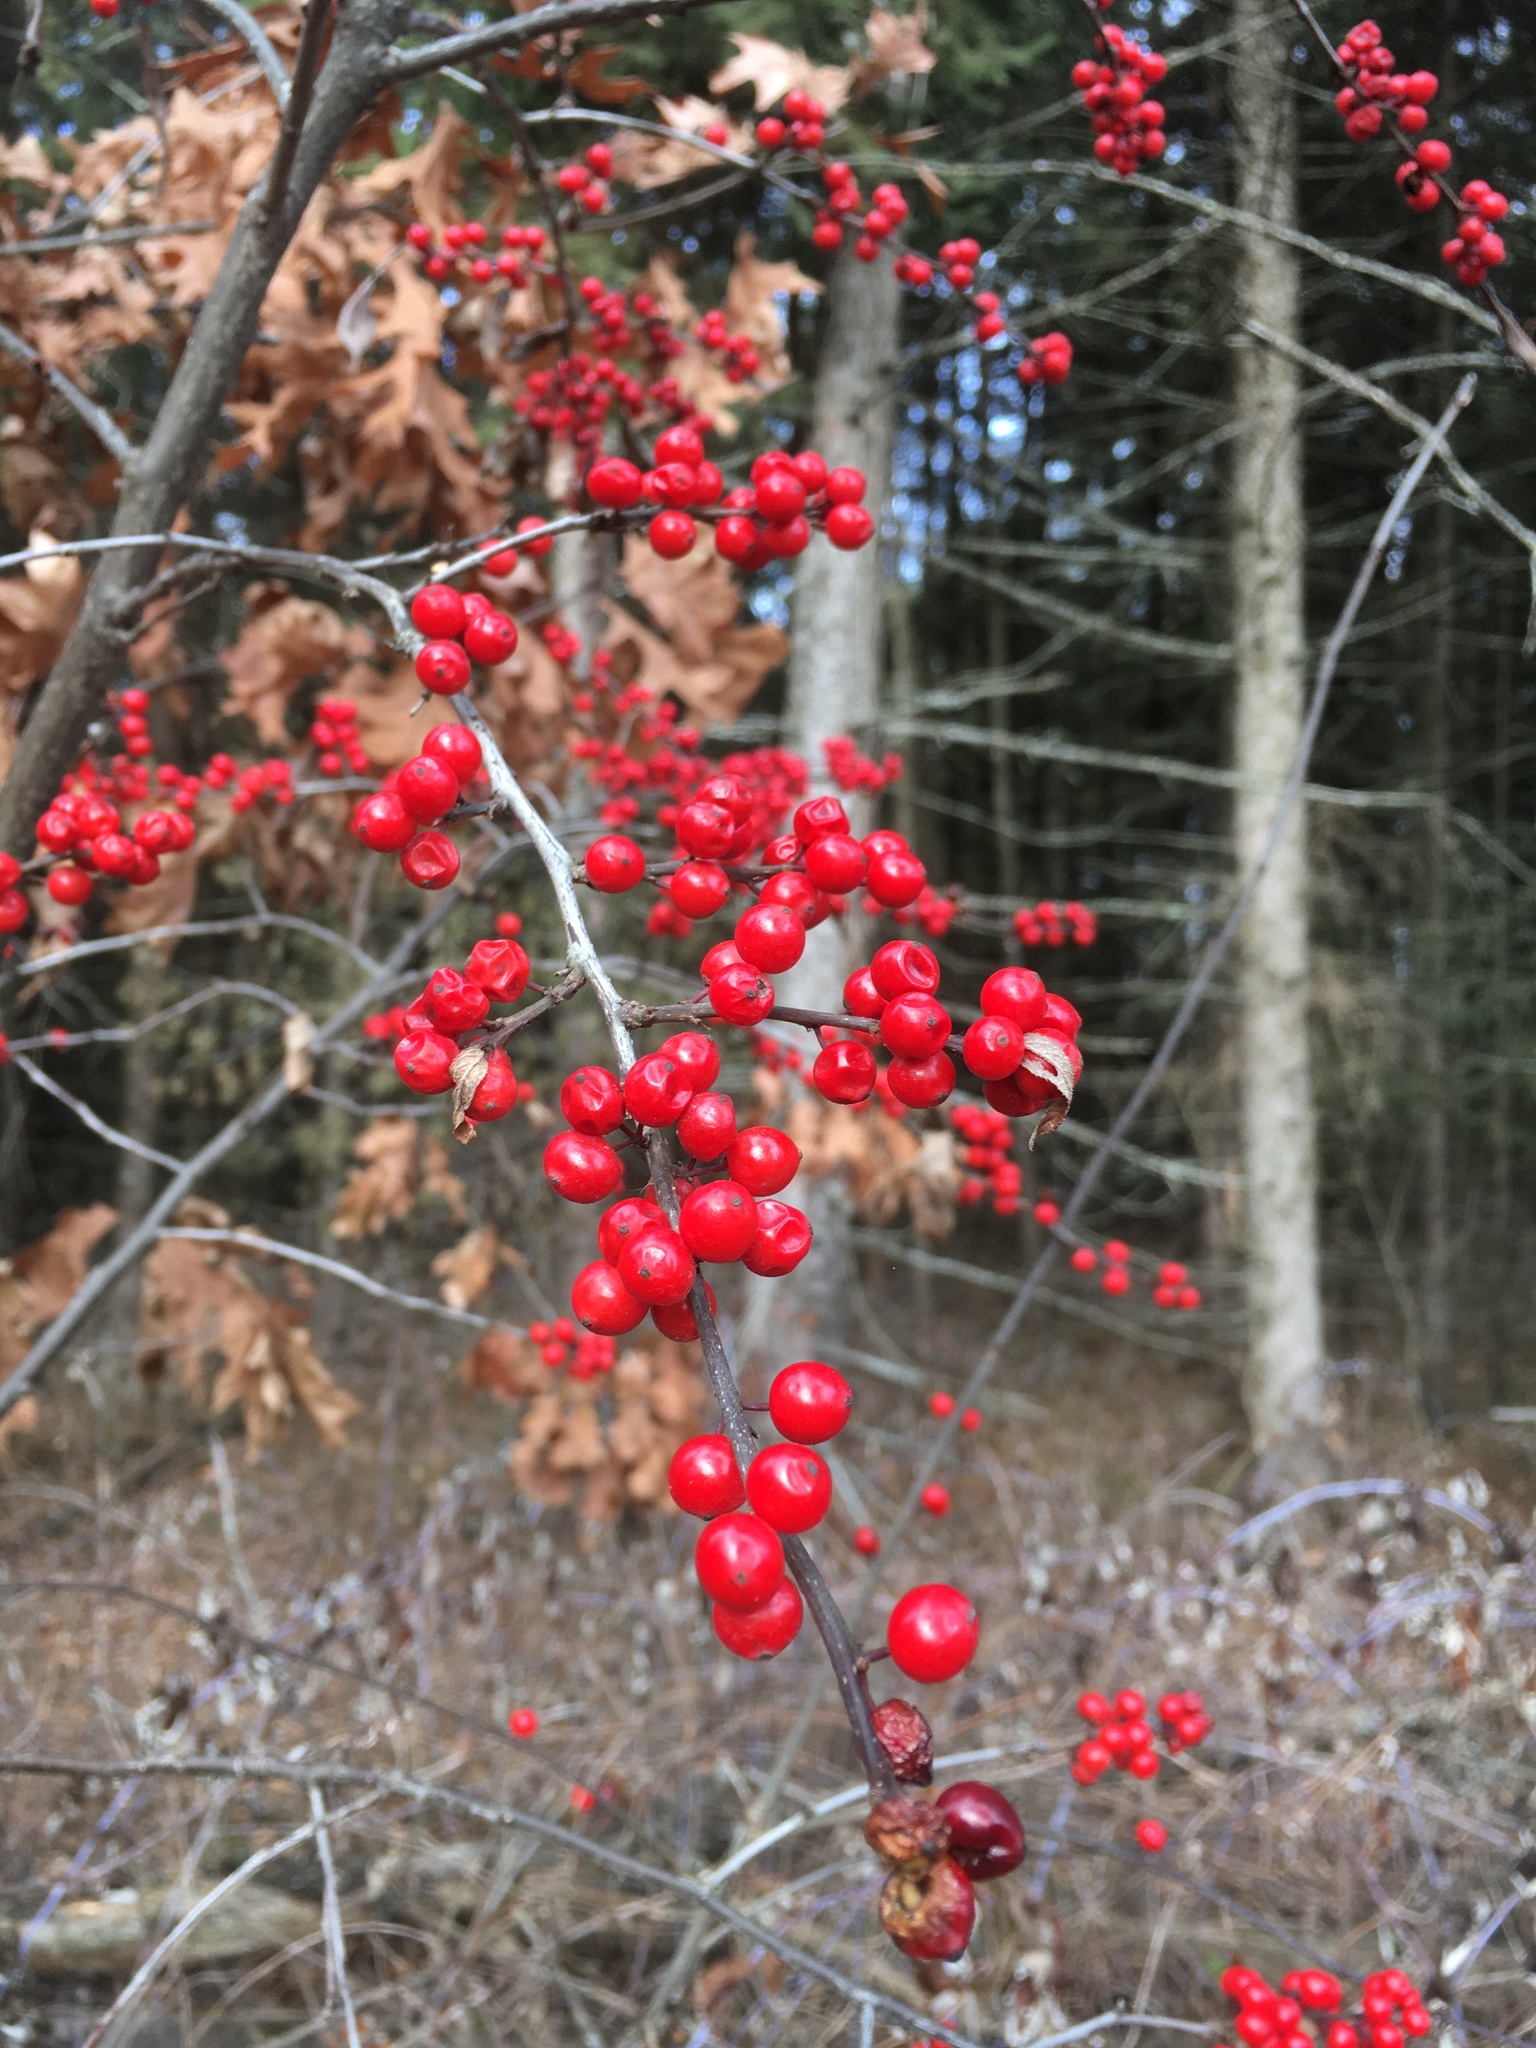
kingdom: Plantae
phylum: Tracheophyta
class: Magnoliopsida
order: Aquifoliales
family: Aquifoliaceae
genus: Ilex
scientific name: Ilex verticillata
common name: Virginia winterberry
